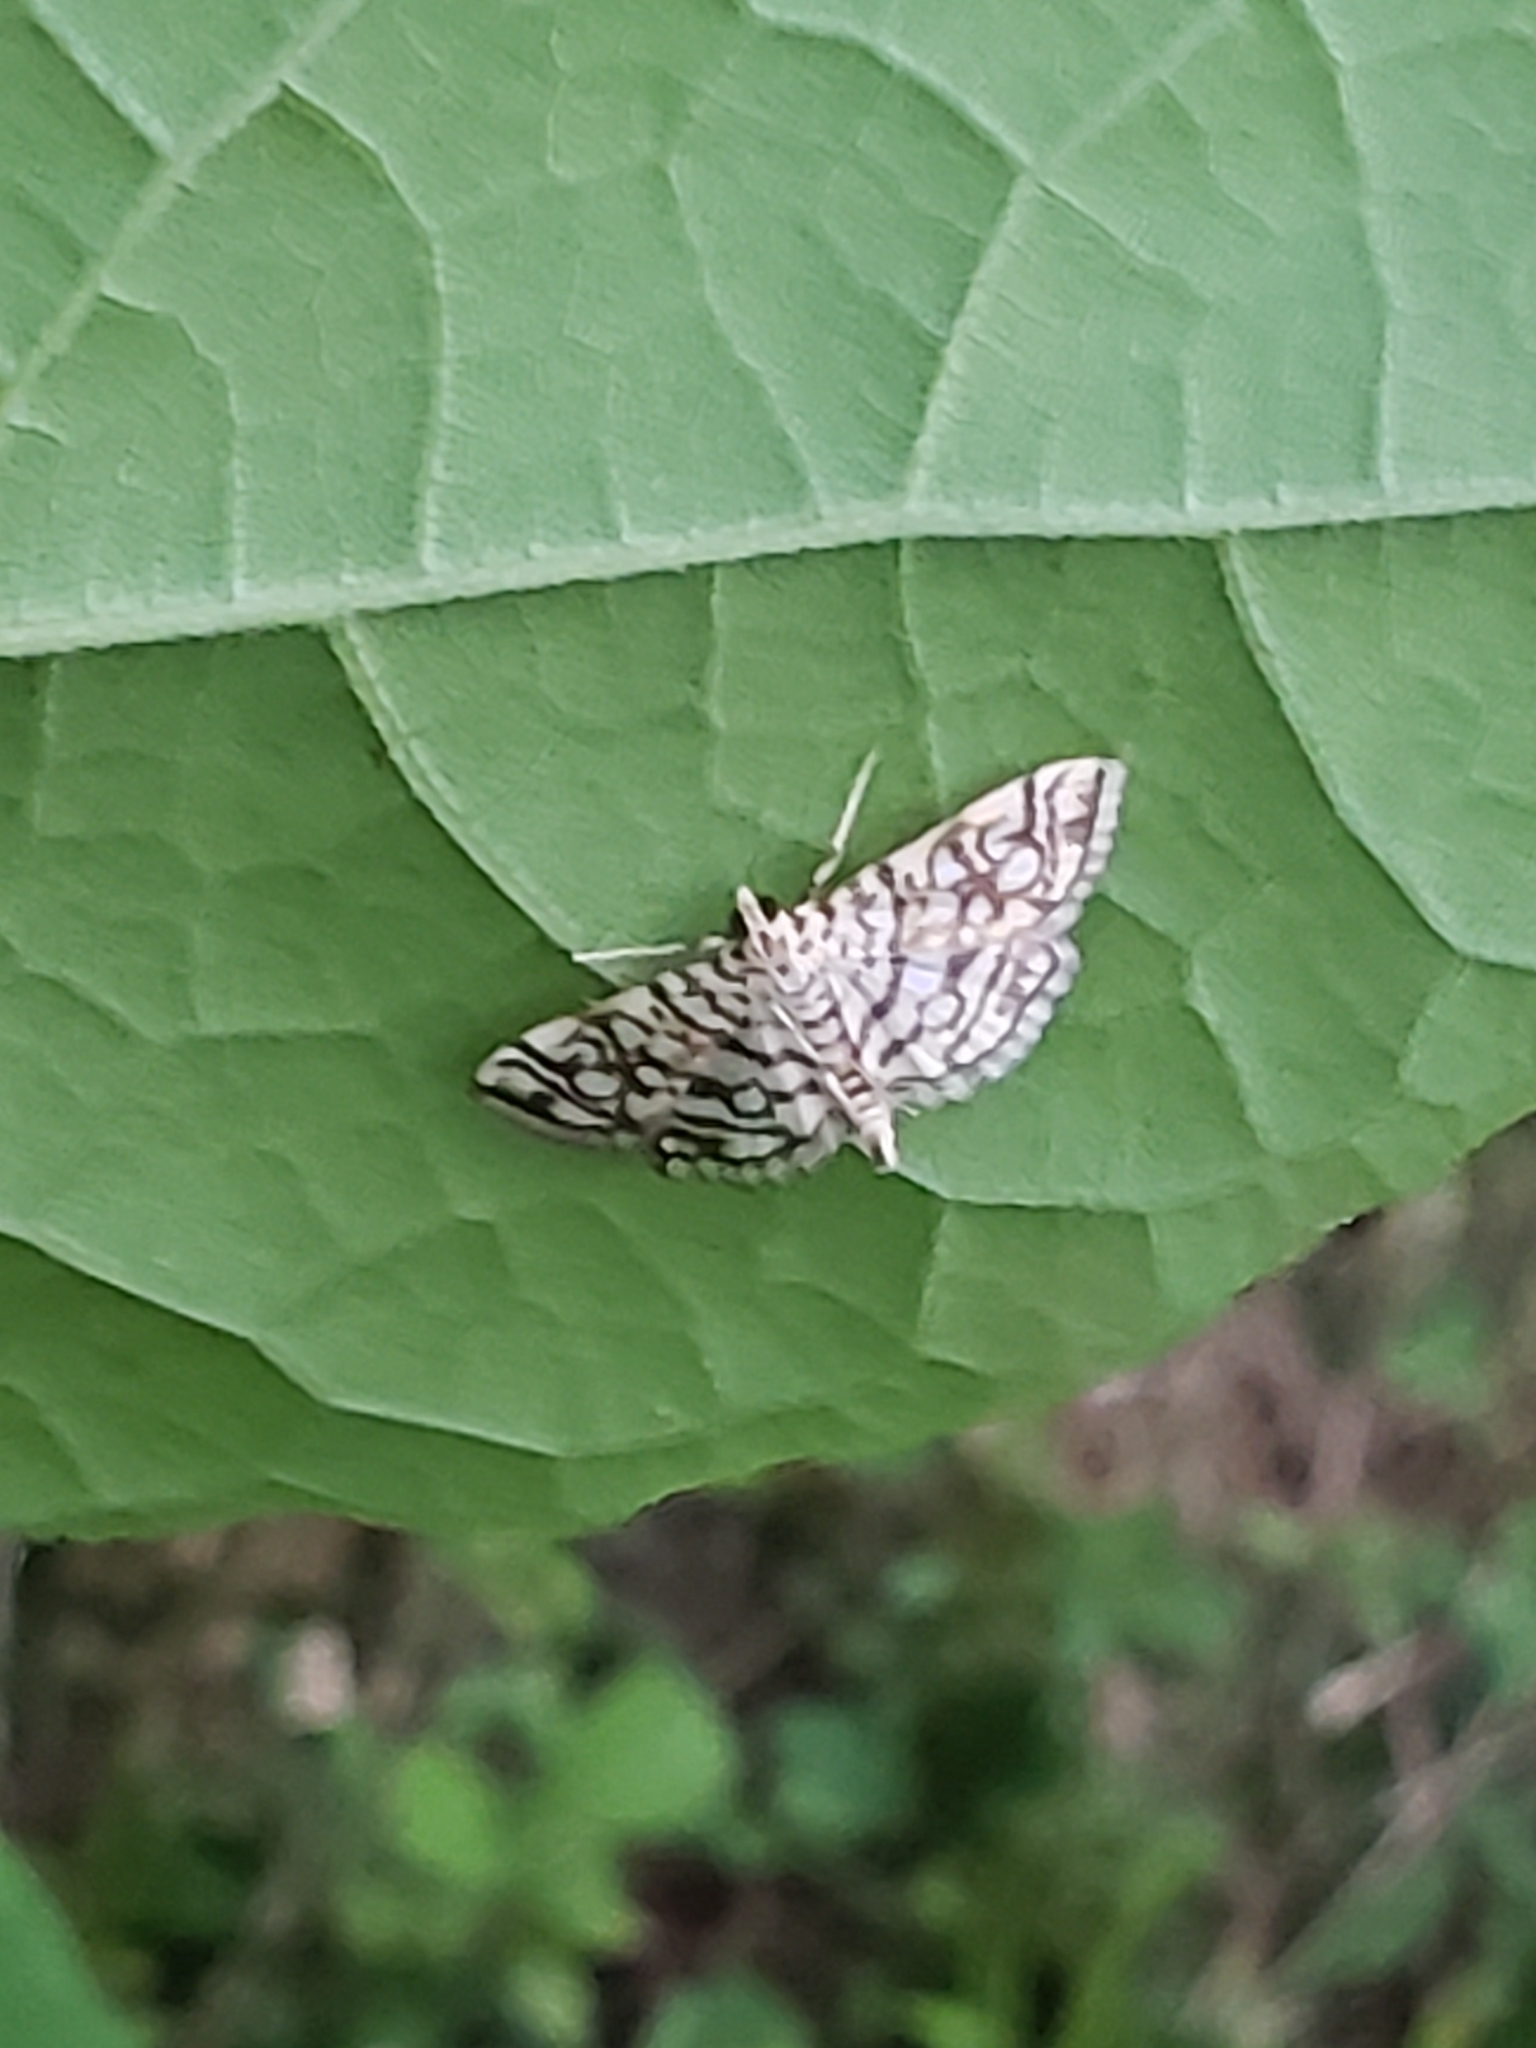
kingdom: Animalia
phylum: Arthropoda
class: Insecta
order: Lepidoptera
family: Crambidae
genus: Lygropia
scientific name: Lygropia rivulalis
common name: Bog lygropia moth
